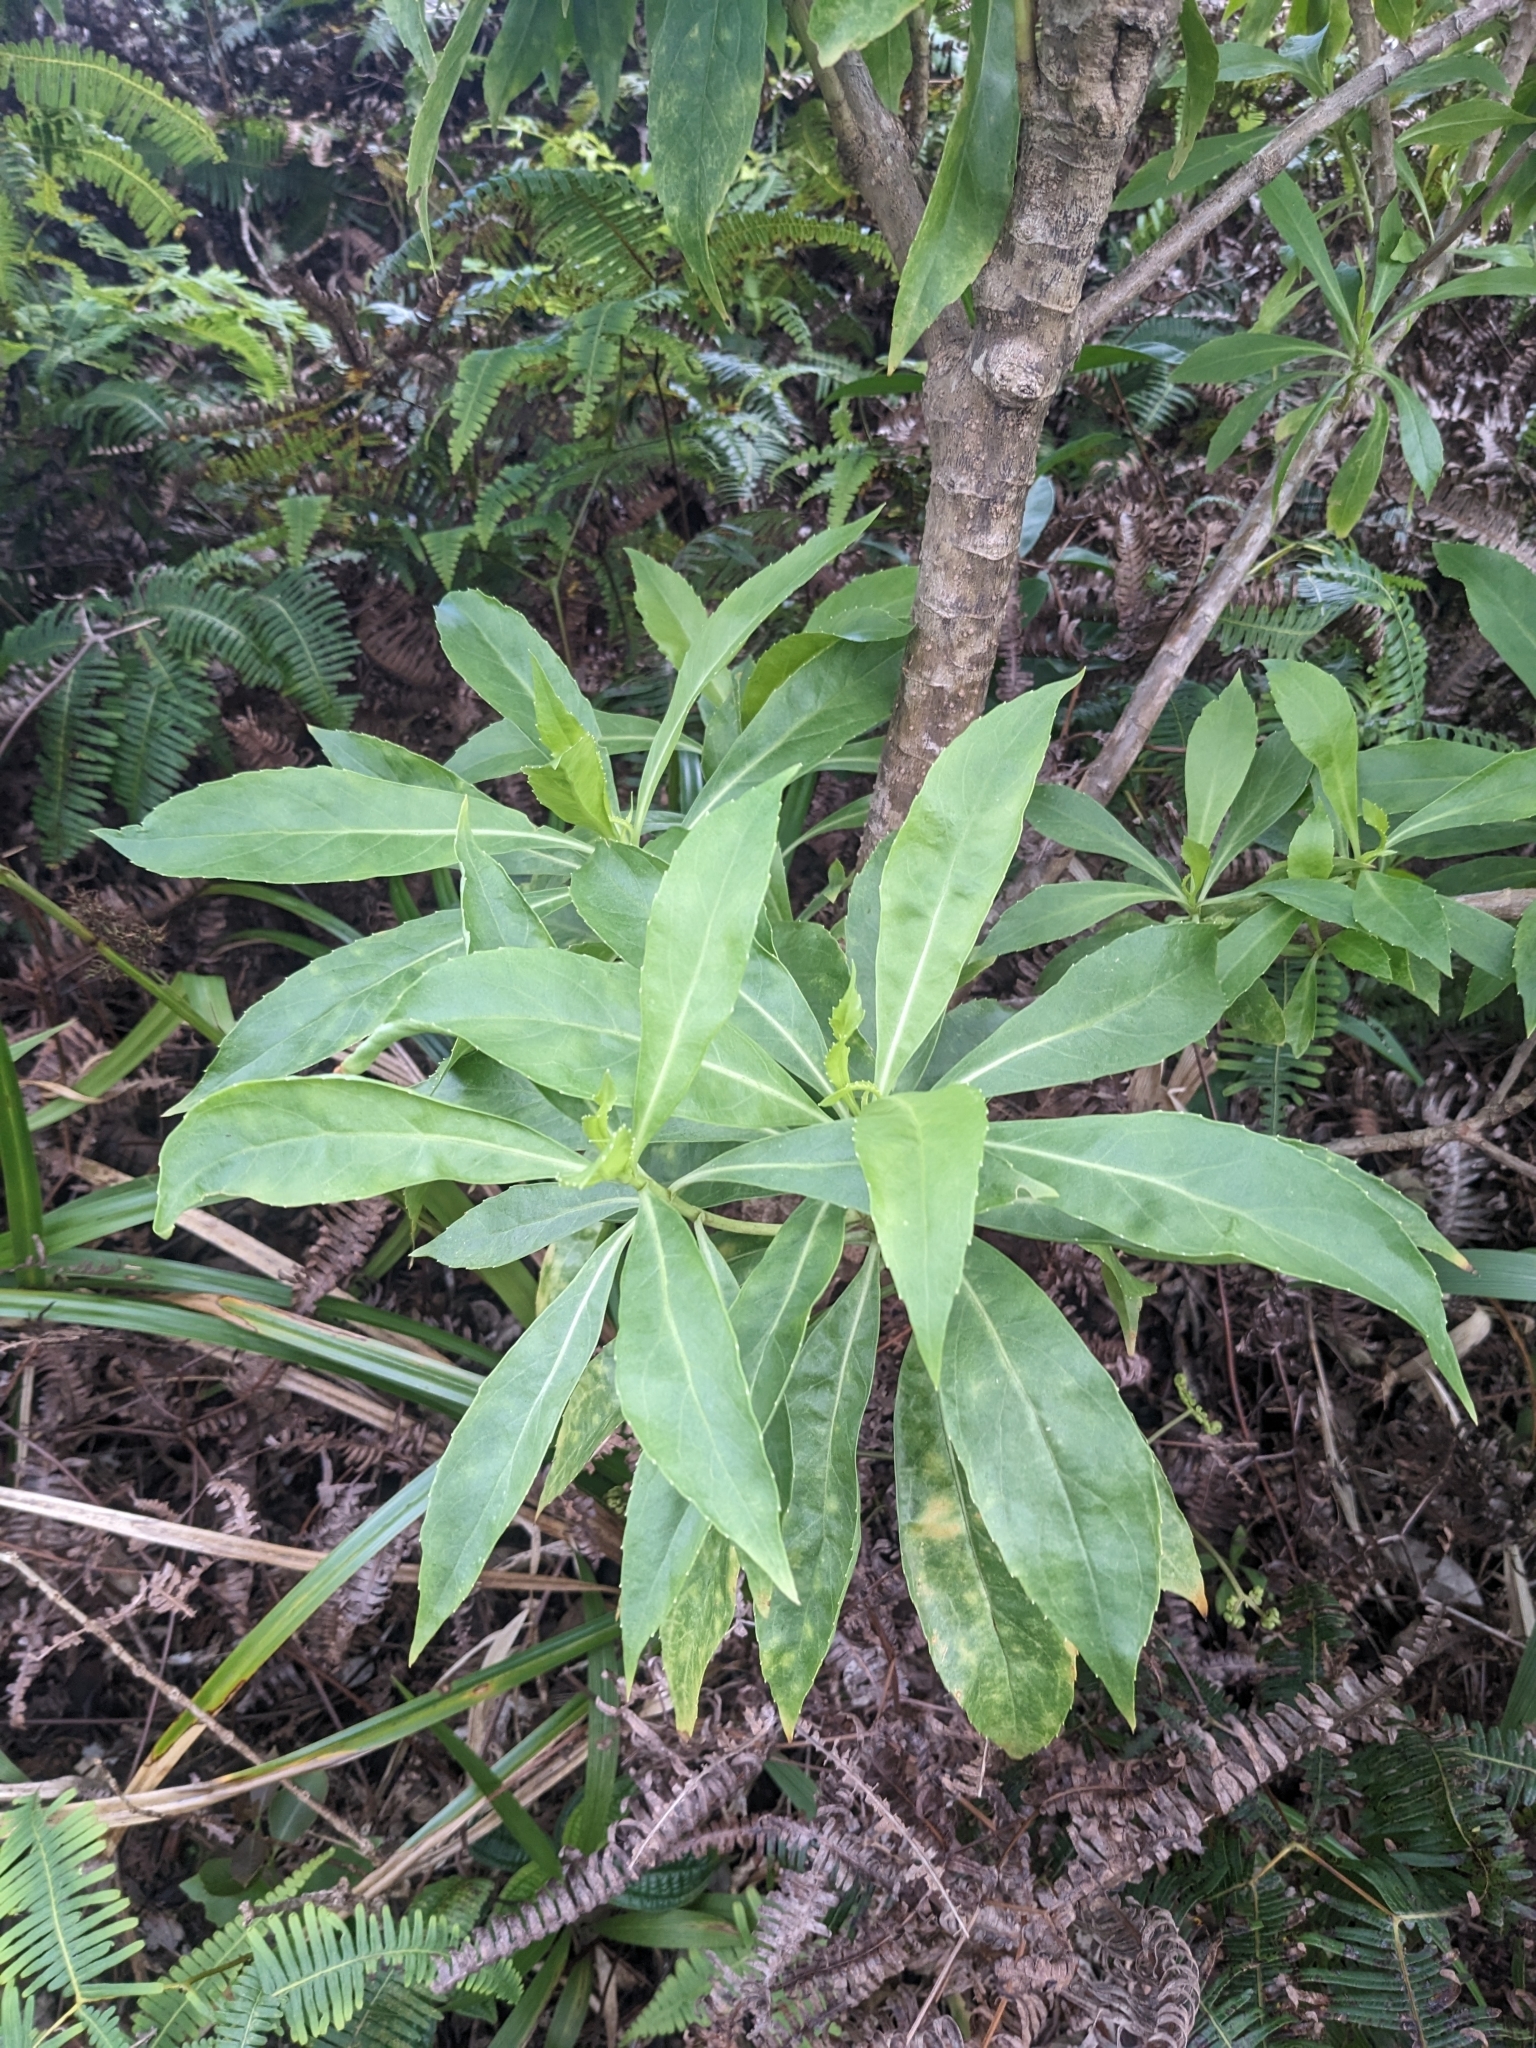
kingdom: Plantae
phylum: Tracheophyta
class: Magnoliopsida
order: Asterales
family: Goodeniaceae
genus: Scaevola
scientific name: Scaevola gaudichaudiana
